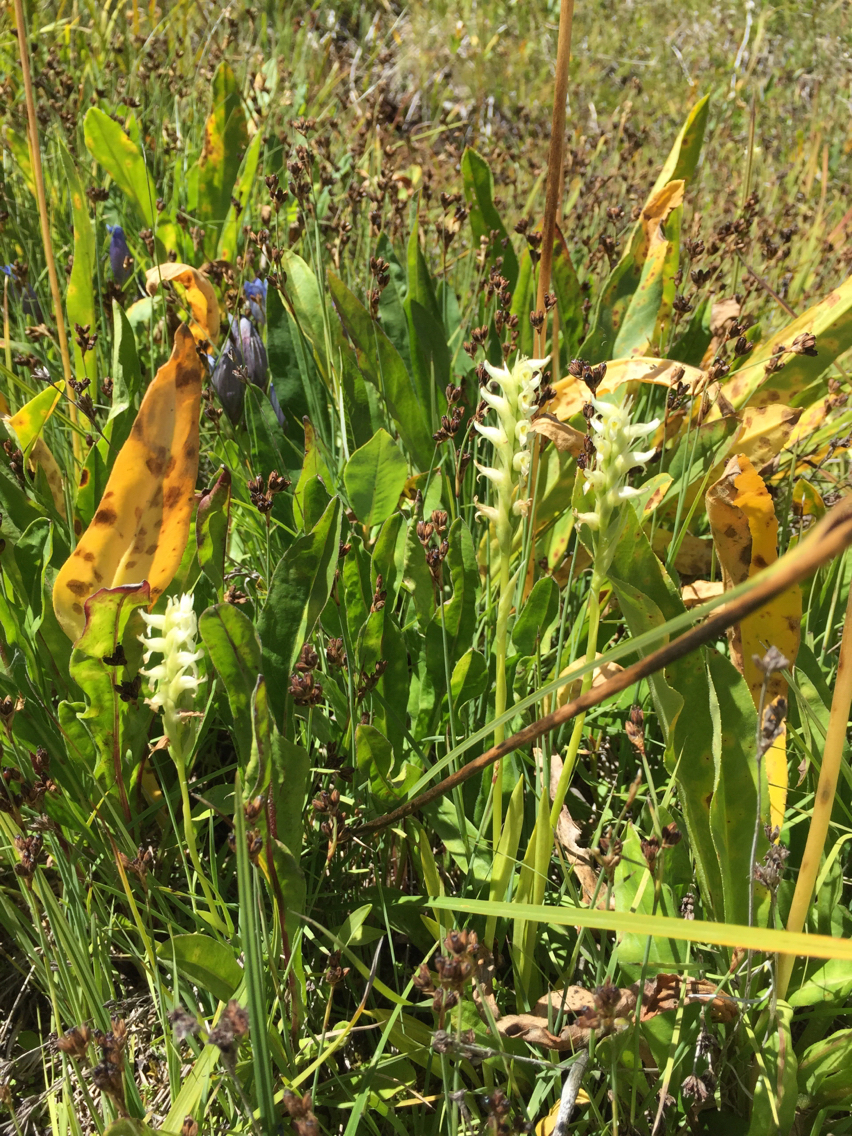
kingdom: Plantae
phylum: Tracheophyta
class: Liliopsida
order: Asparagales
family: Orchidaceae
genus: Spiranthes
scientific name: Spiranthes romanzoffiana
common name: Irish lady's-tresses
